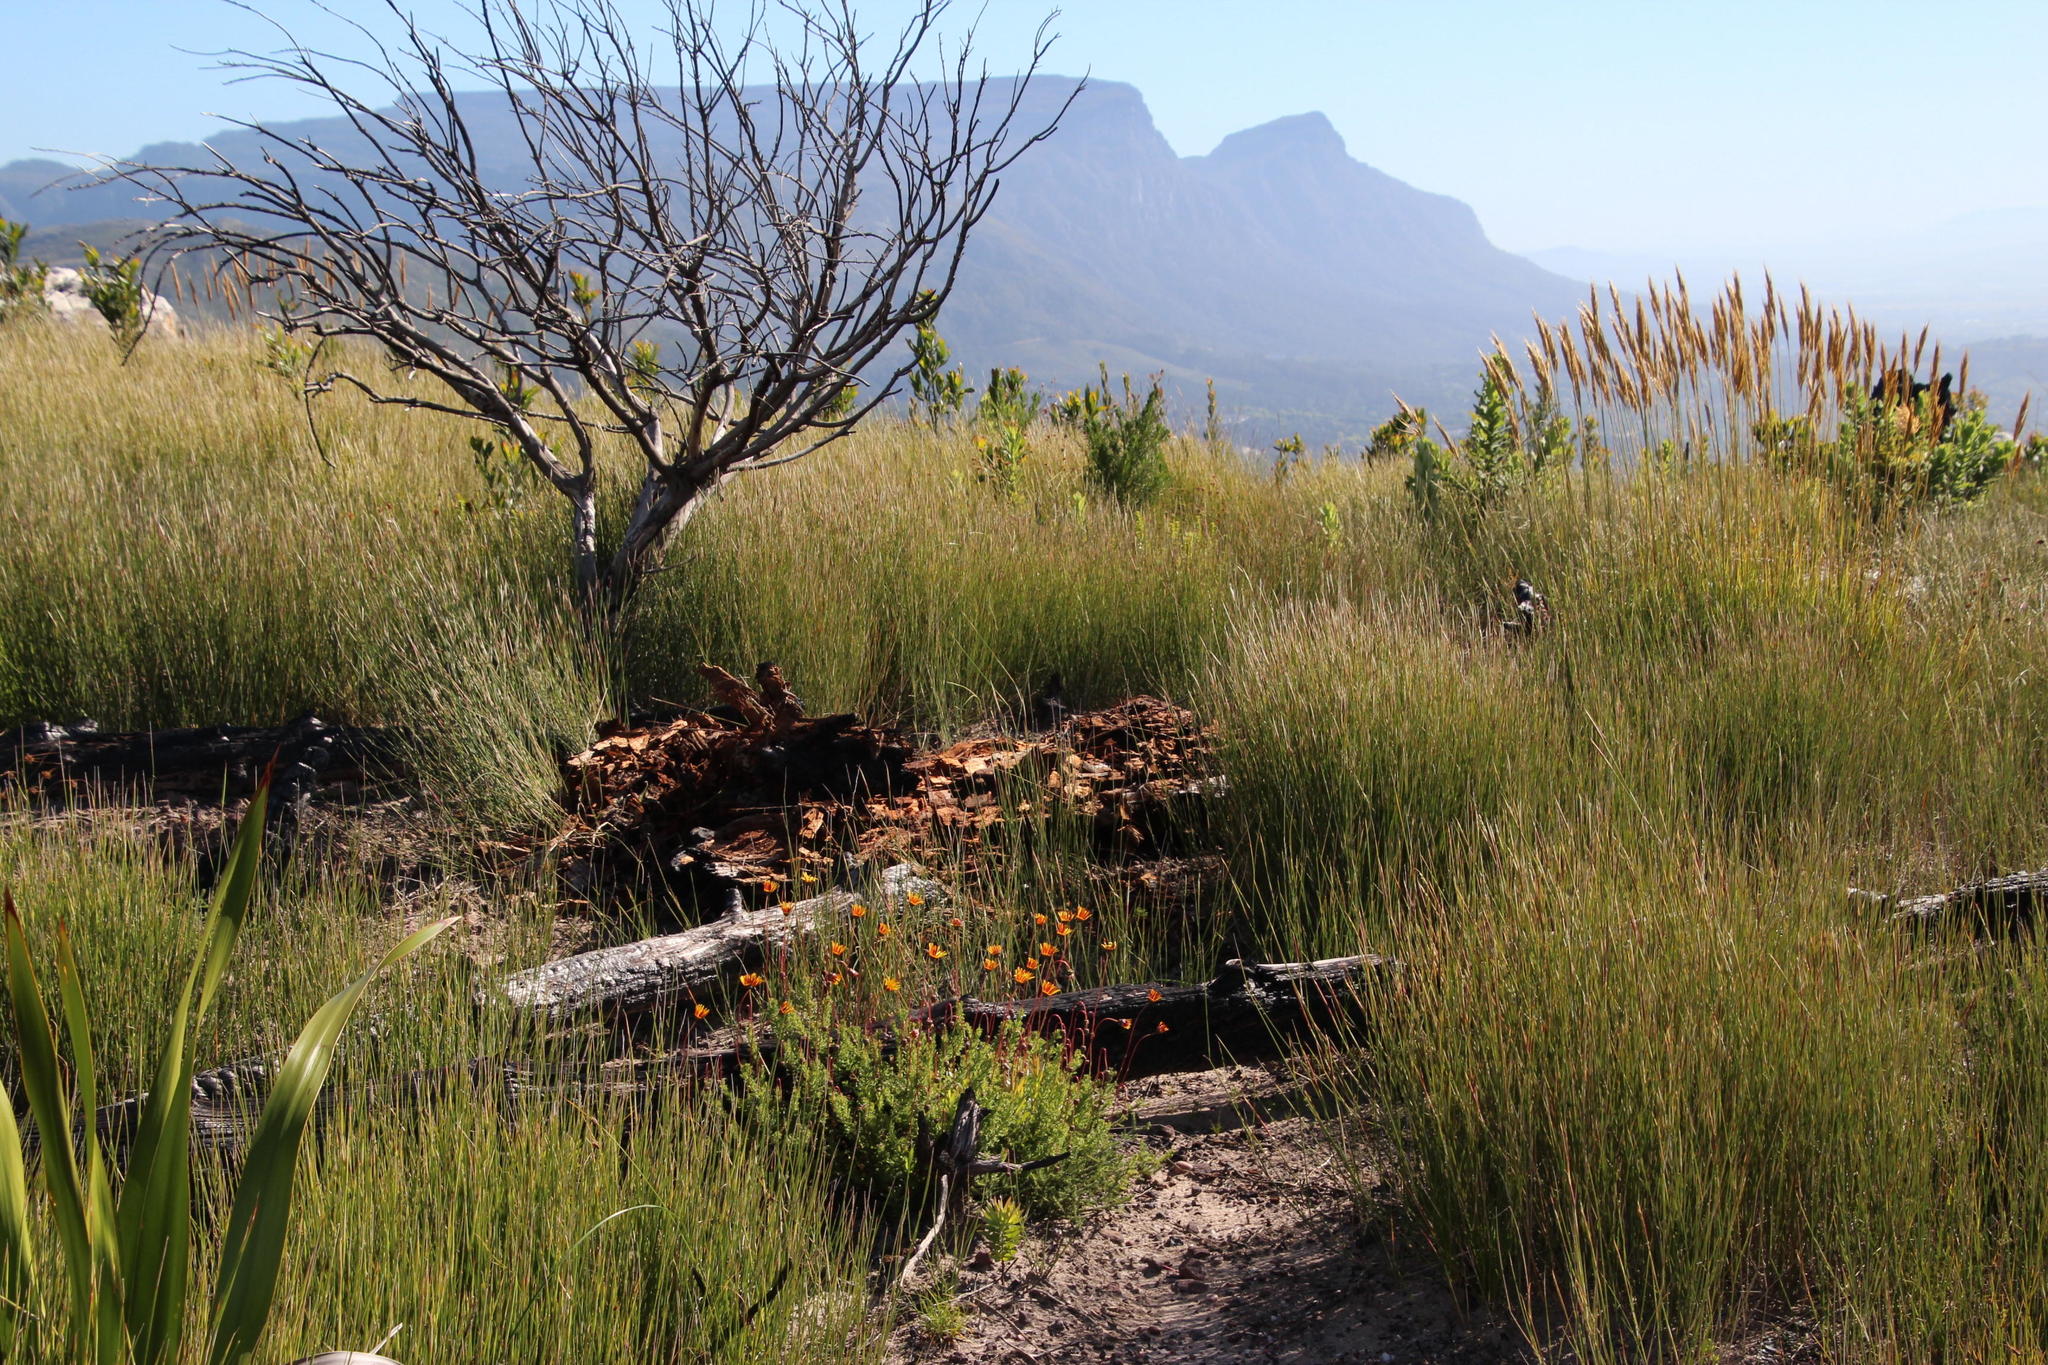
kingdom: Plantae
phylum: Tracheophyta
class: Liliopsida
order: Poales
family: Poaceae
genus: Ehrharta
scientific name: Ehrharta ramosa
